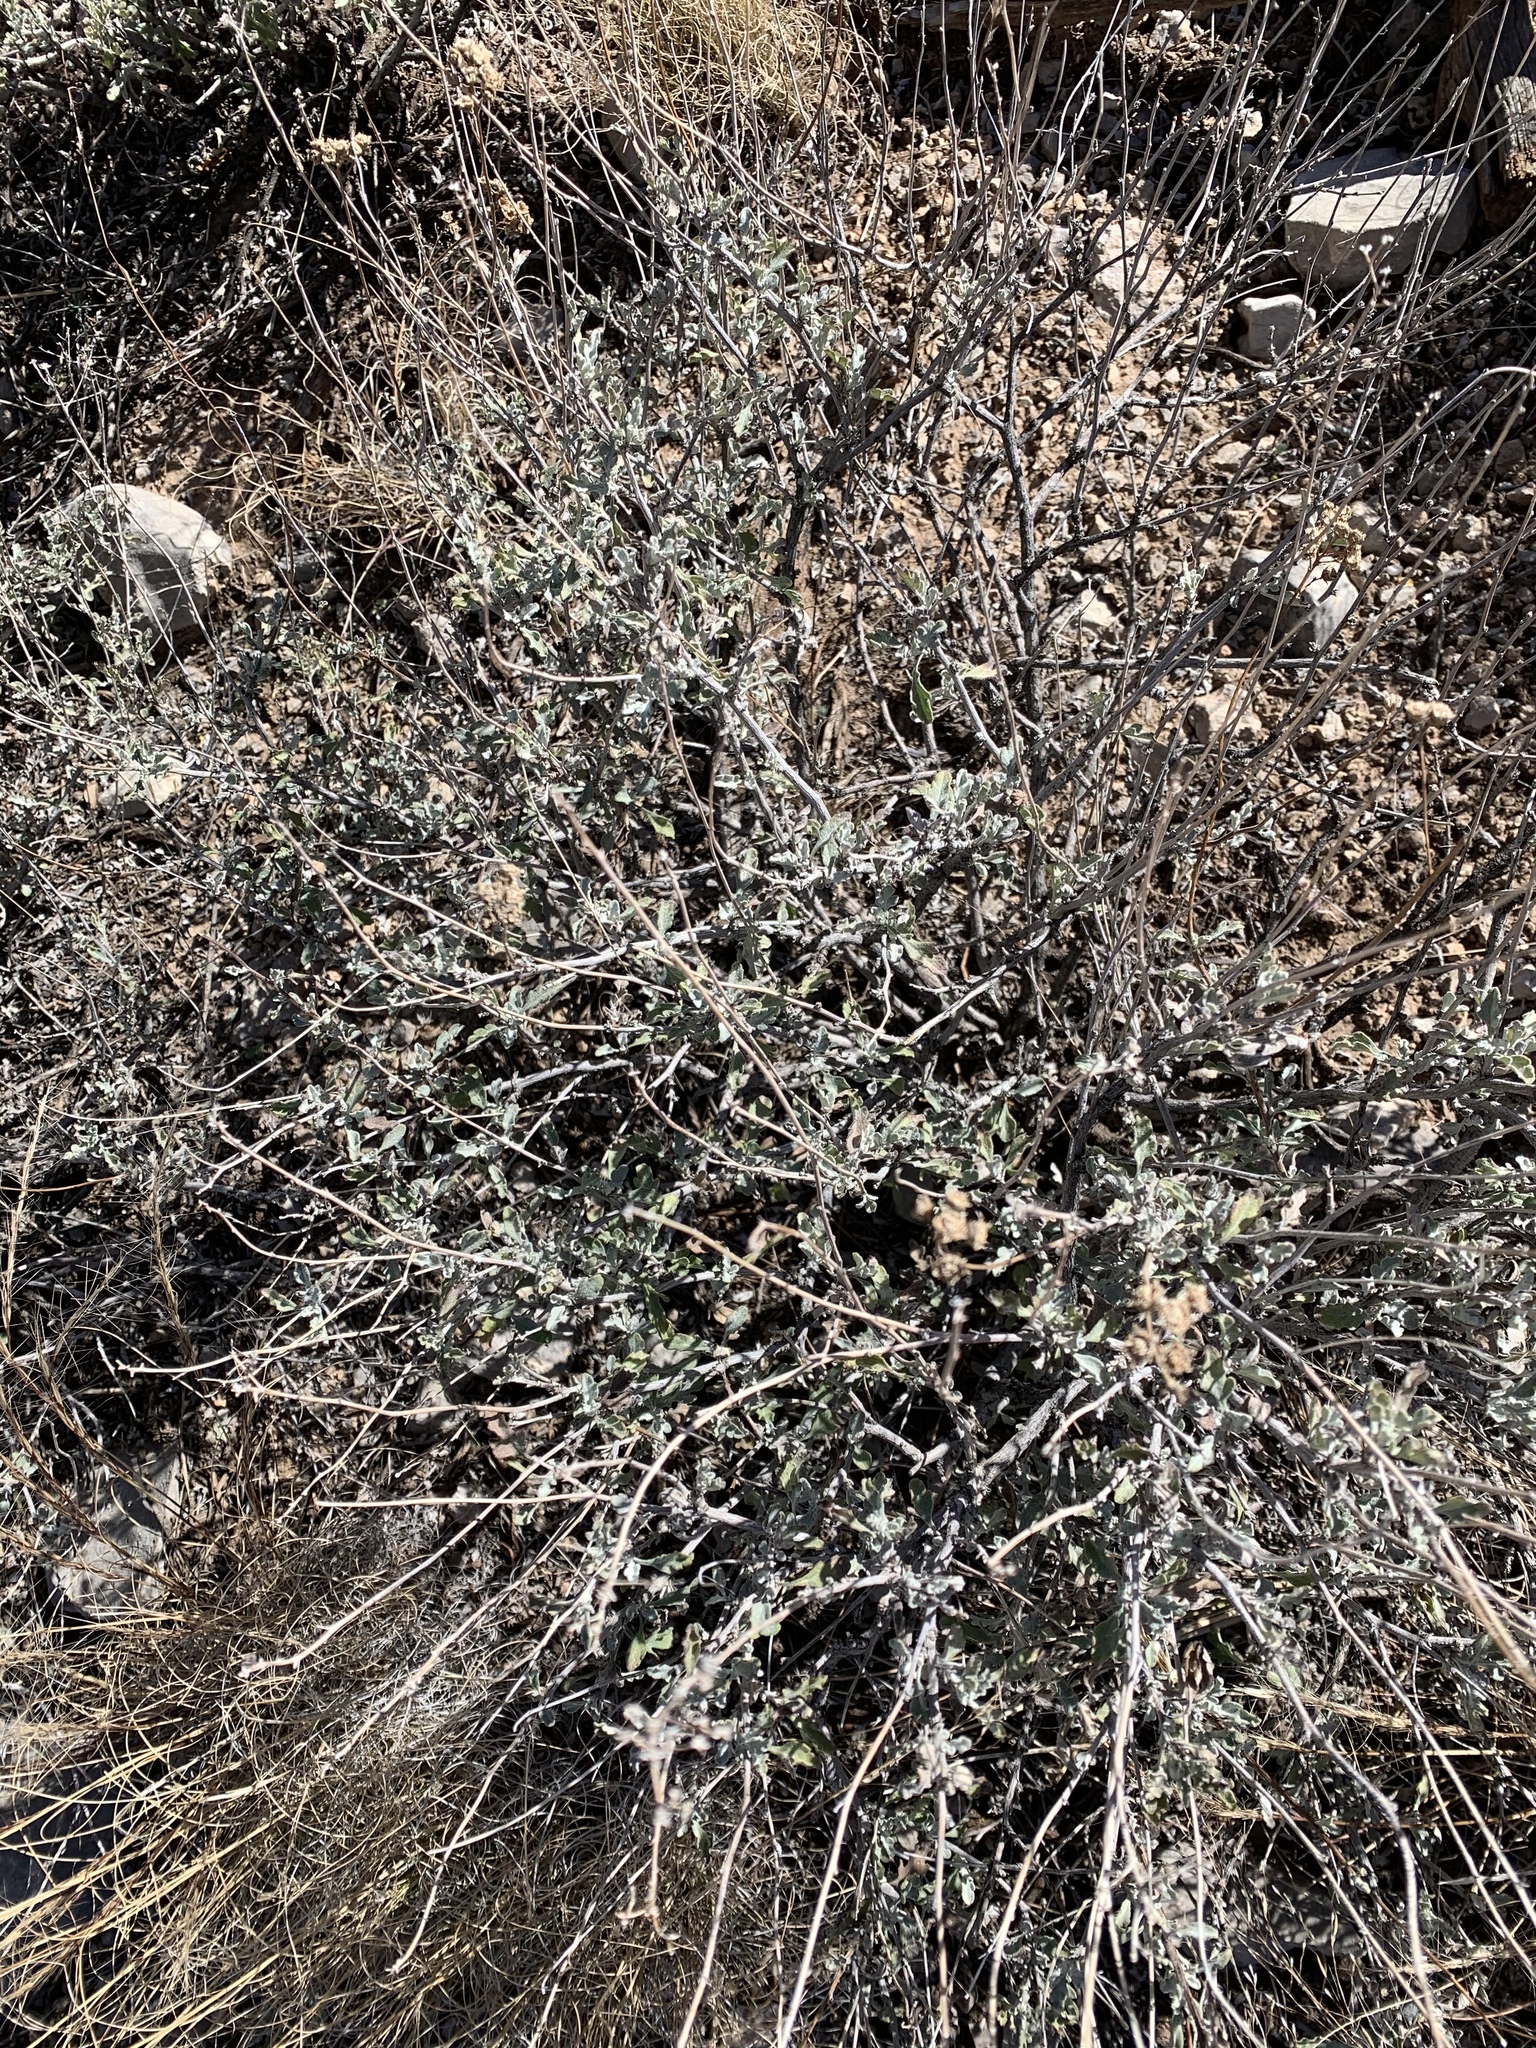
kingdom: Plantae
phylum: Tracheophyta
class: Magnoliopsida
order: Asterales
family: Asteraceae
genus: Parthenium
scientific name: Parthenium incanum
